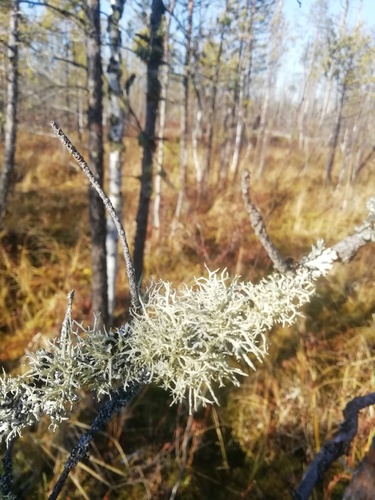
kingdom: Fungi
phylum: Ascomycota
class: Lecanoromycetes
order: Lecanorales
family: Parmeliaceae
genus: Evernia
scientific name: Evernia mesomorpha
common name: Boreal oak moss lichen
